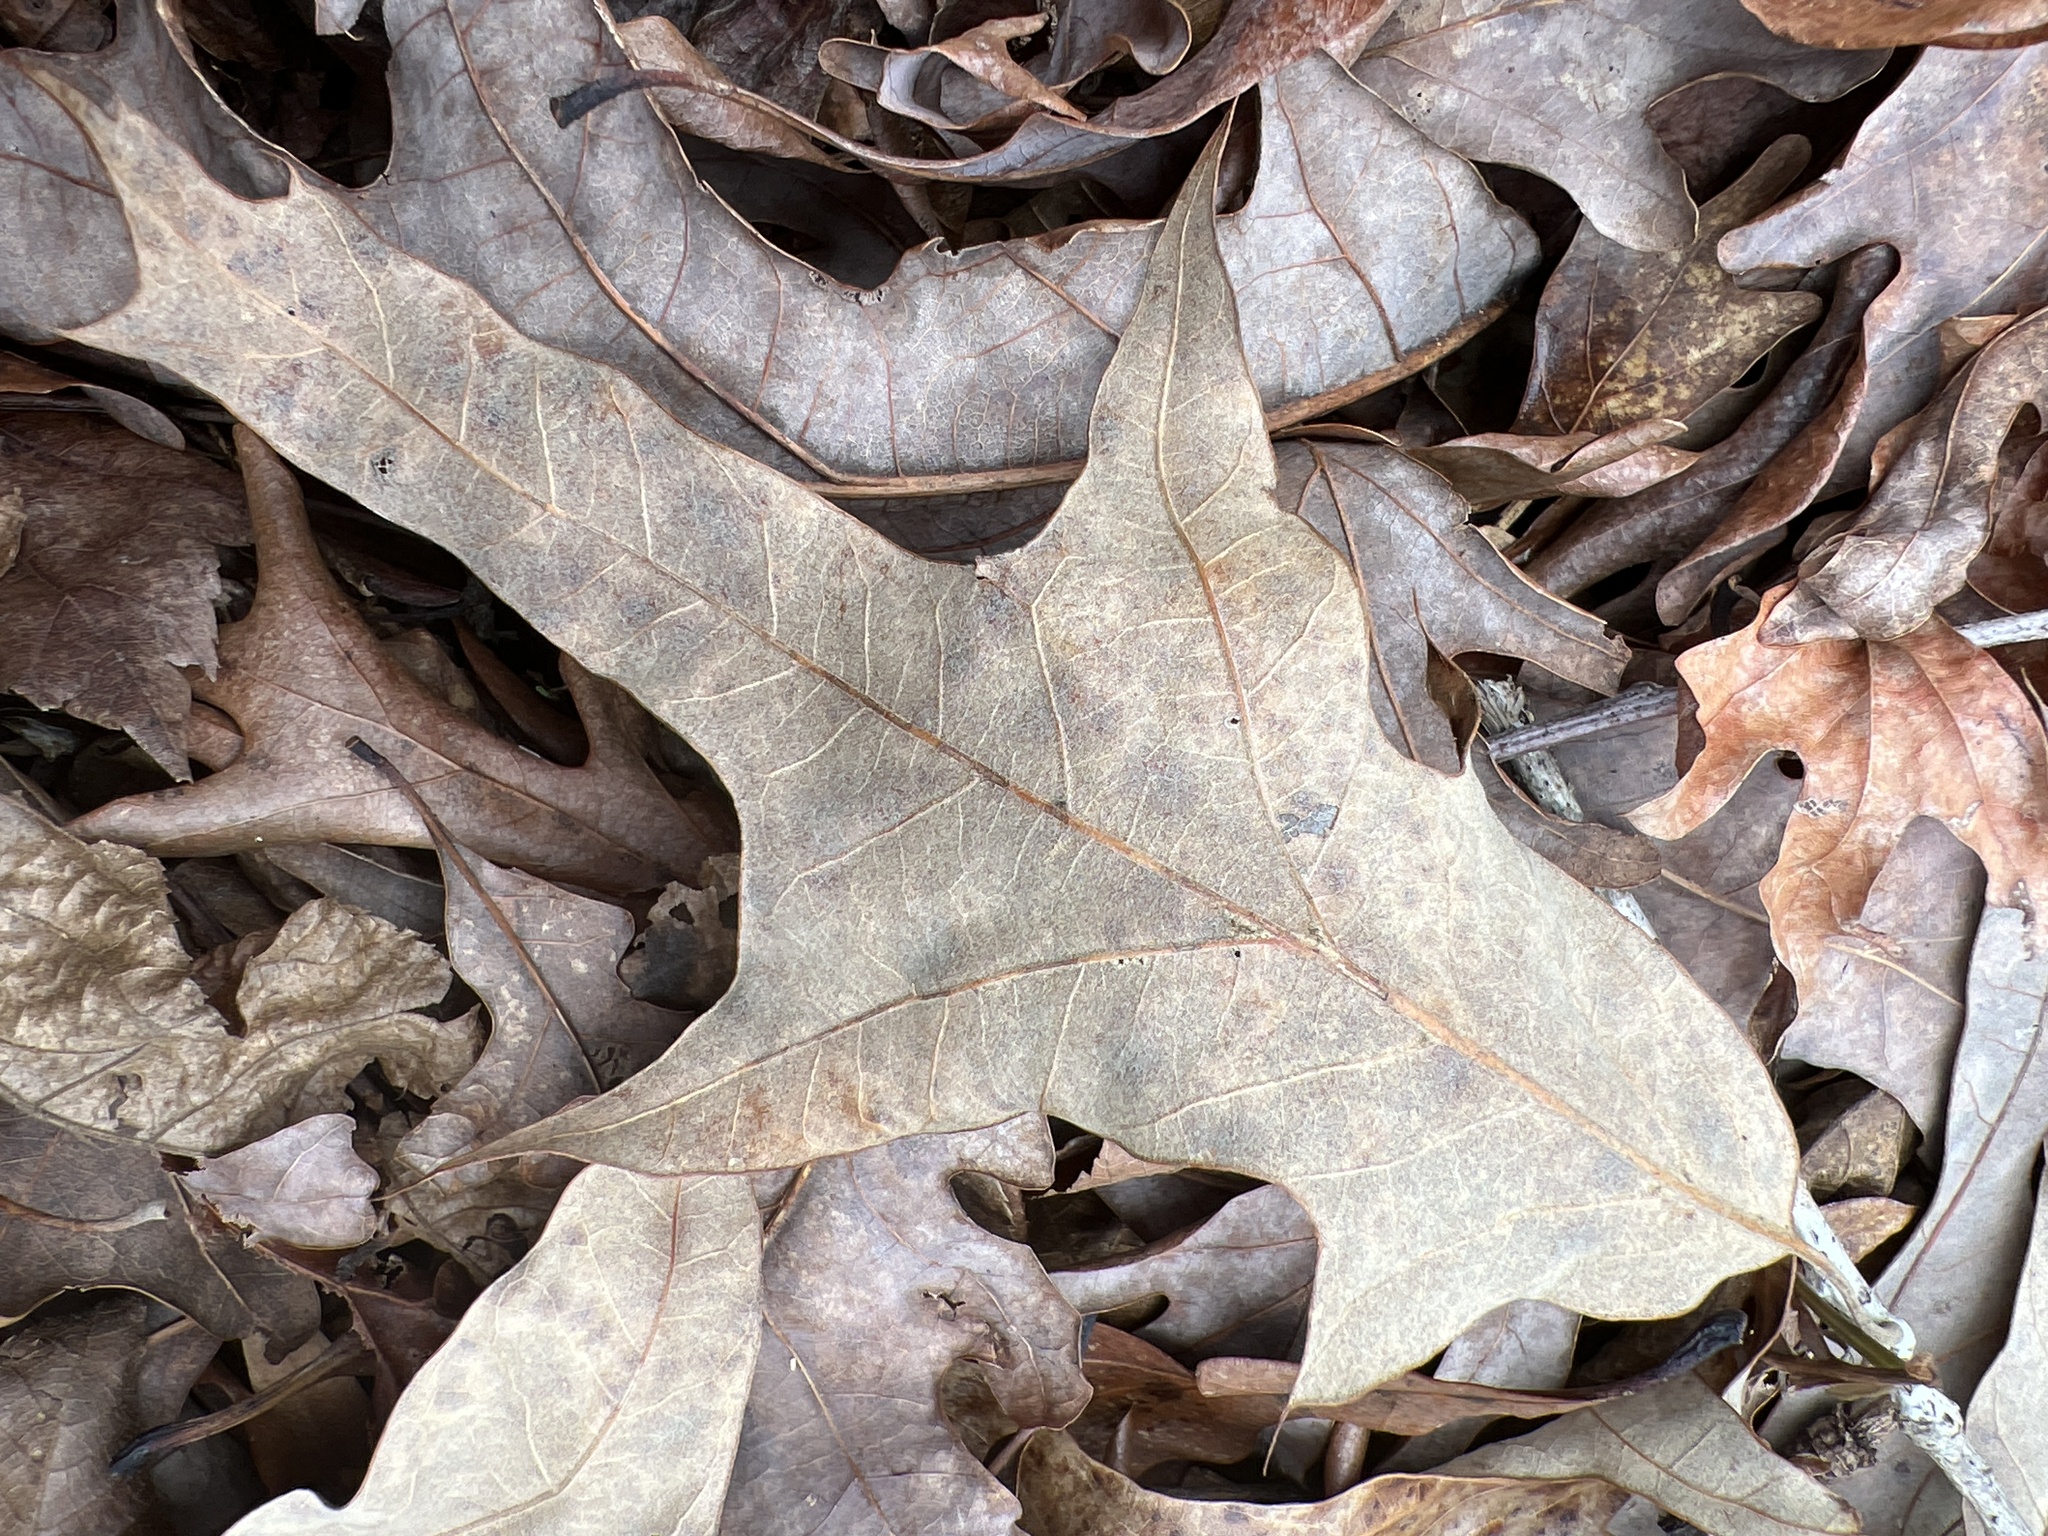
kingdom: Plantae
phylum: Tracheophyta
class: Magnoliopsida
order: Fagales
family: Fagaceae
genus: Quercus
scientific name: Quercus falcata
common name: Southern red oak
